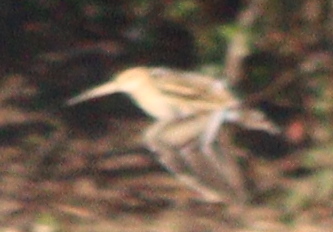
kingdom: Animalia
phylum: Chordata
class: Aves
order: Charadriiformes
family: Scolopacidae
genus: Gallinago
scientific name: Gallinago gallinago
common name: Common snipe
